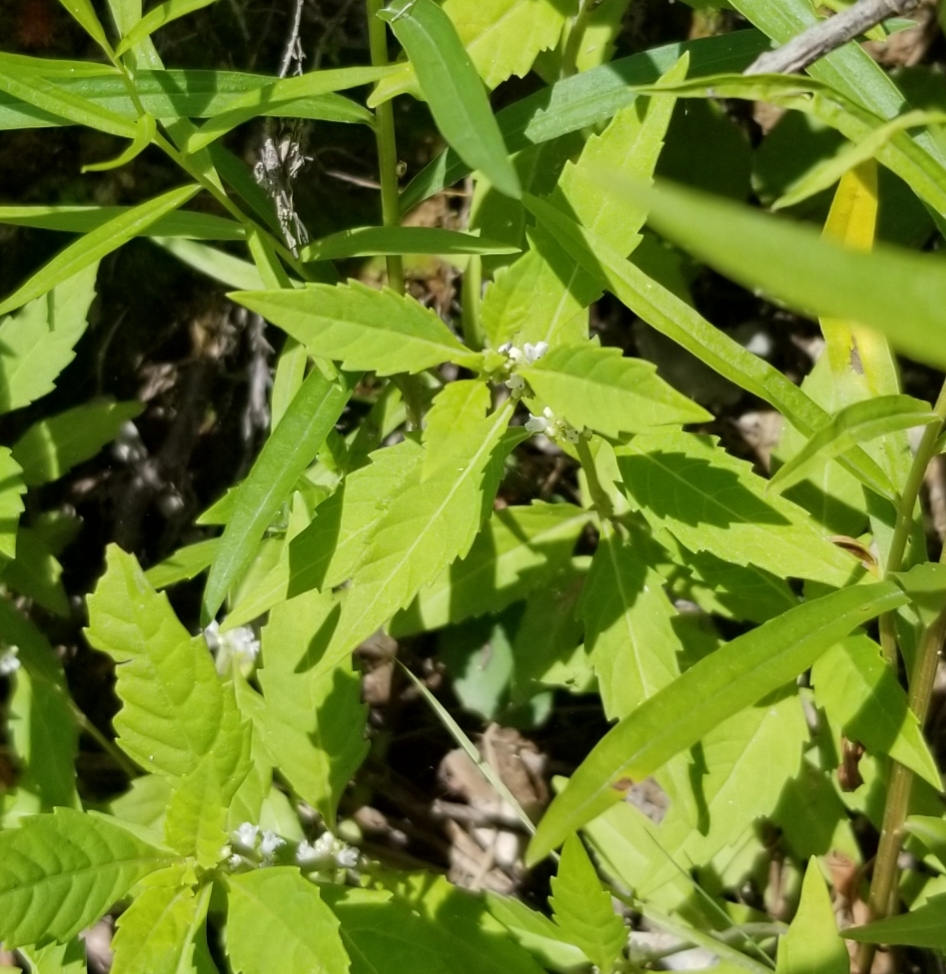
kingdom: Plantae
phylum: Tracheophyta
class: Magnoliopsida
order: Lamiales
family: Lamiaceae
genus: Lycopus
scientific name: Lycopus uniflorus
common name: Northern bugleweed
